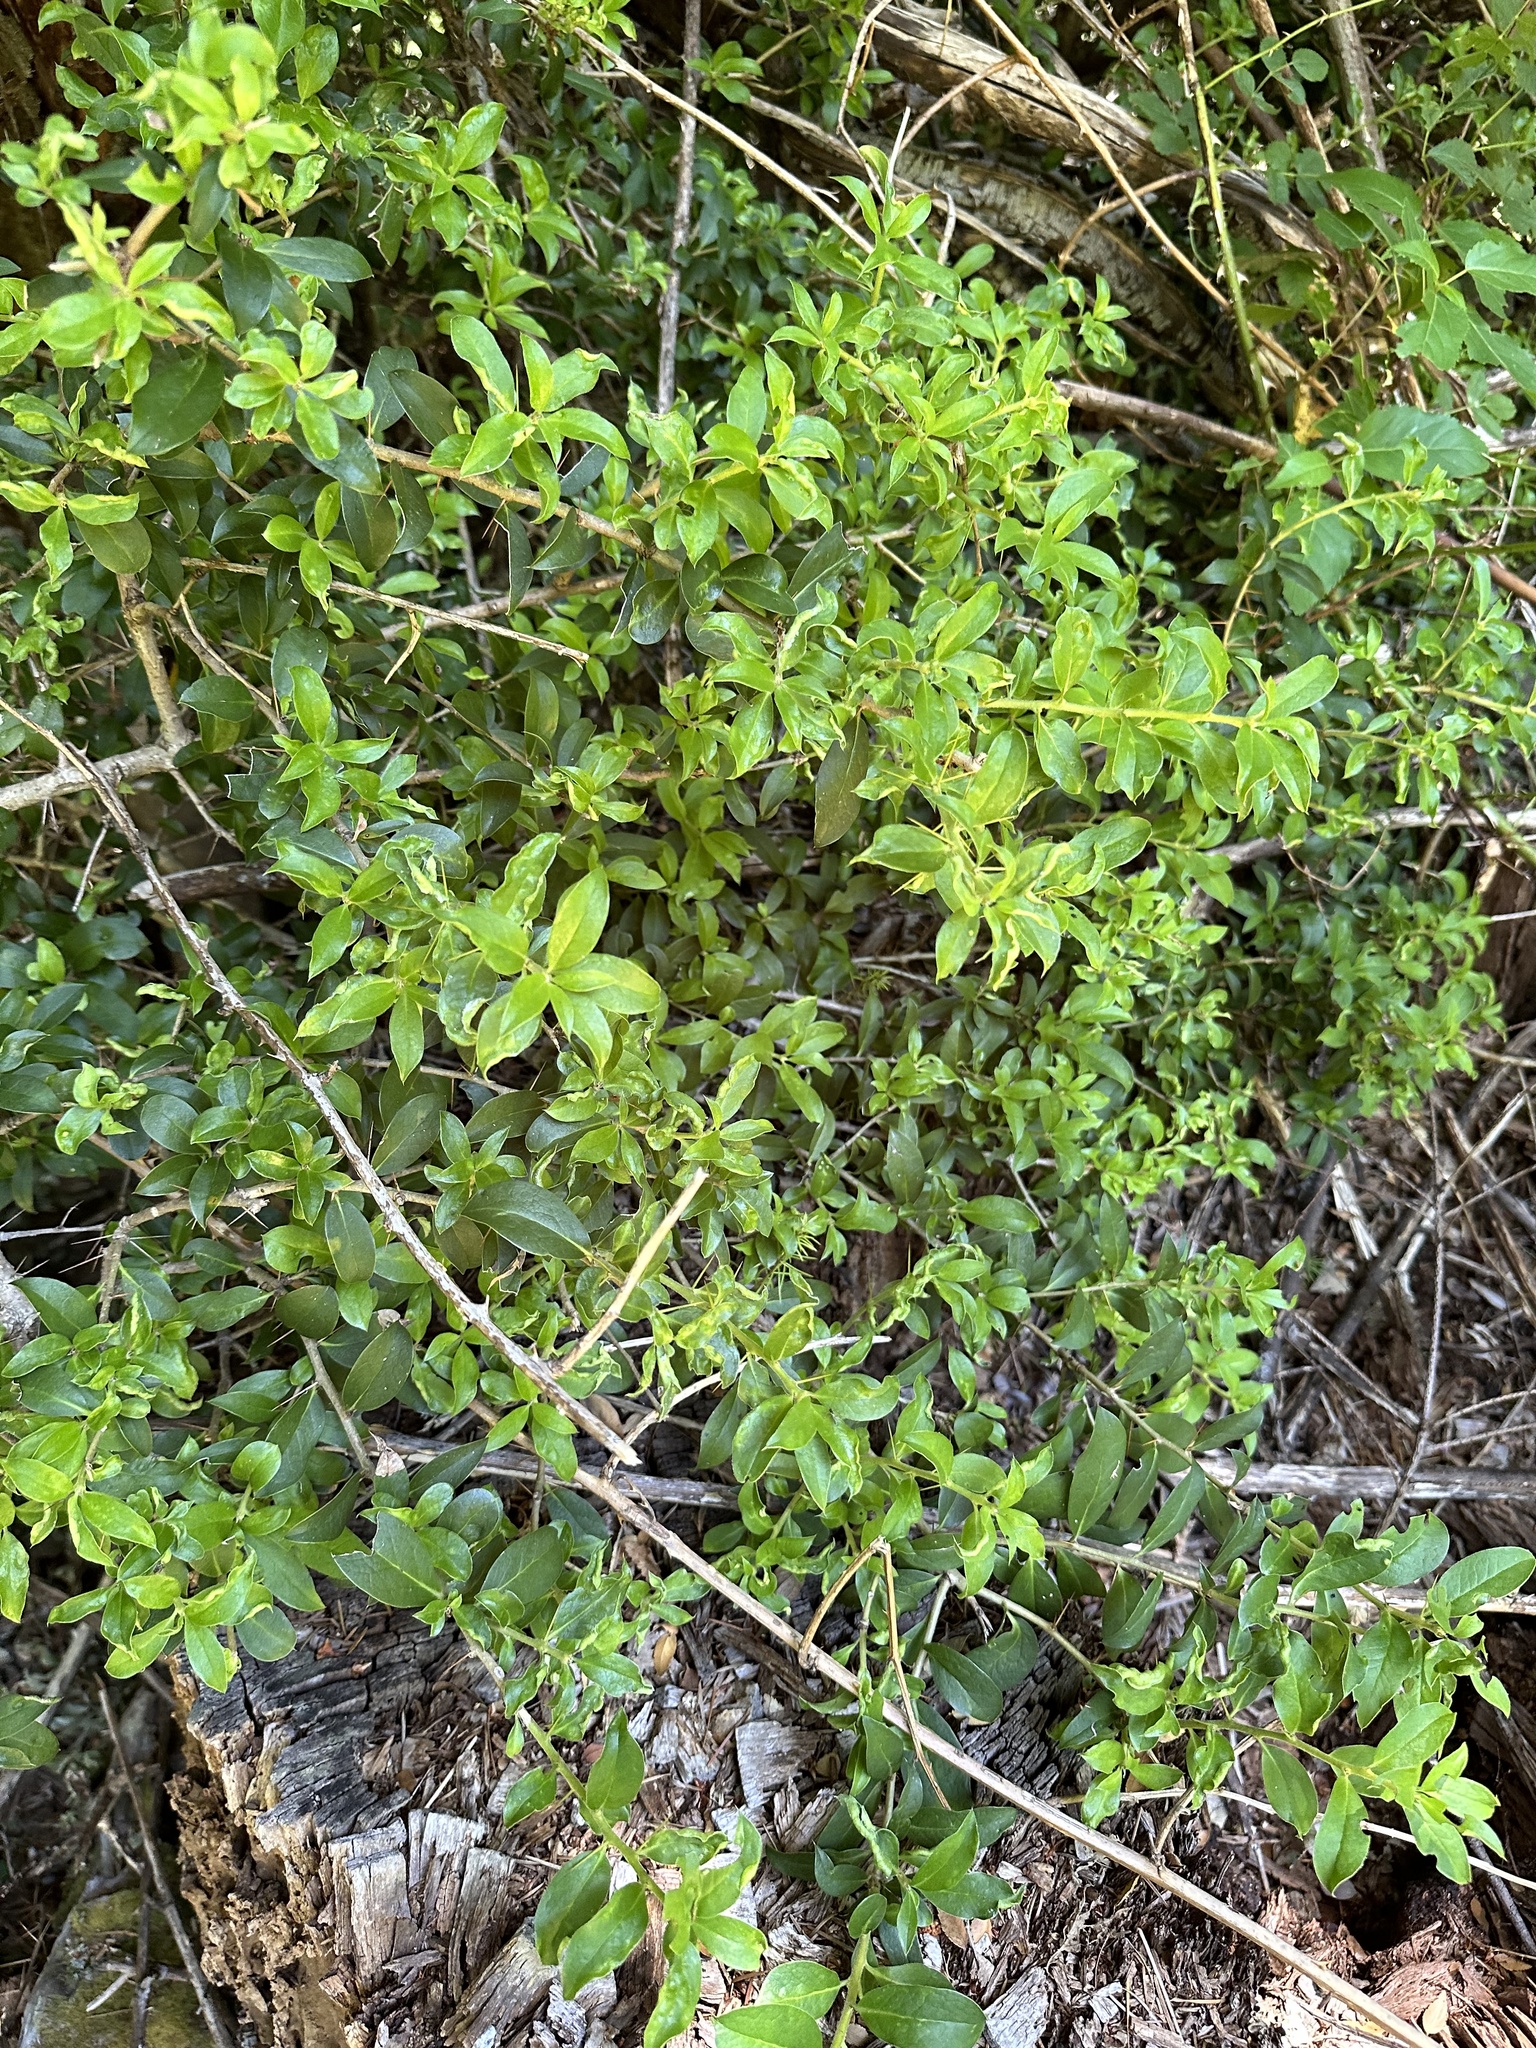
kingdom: Plantae
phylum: Tracheophyta
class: Magnoliopsida
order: Asterales
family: Asteraceae
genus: Archidasyphyllum
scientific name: Archidasyphyllum diacanthoides
